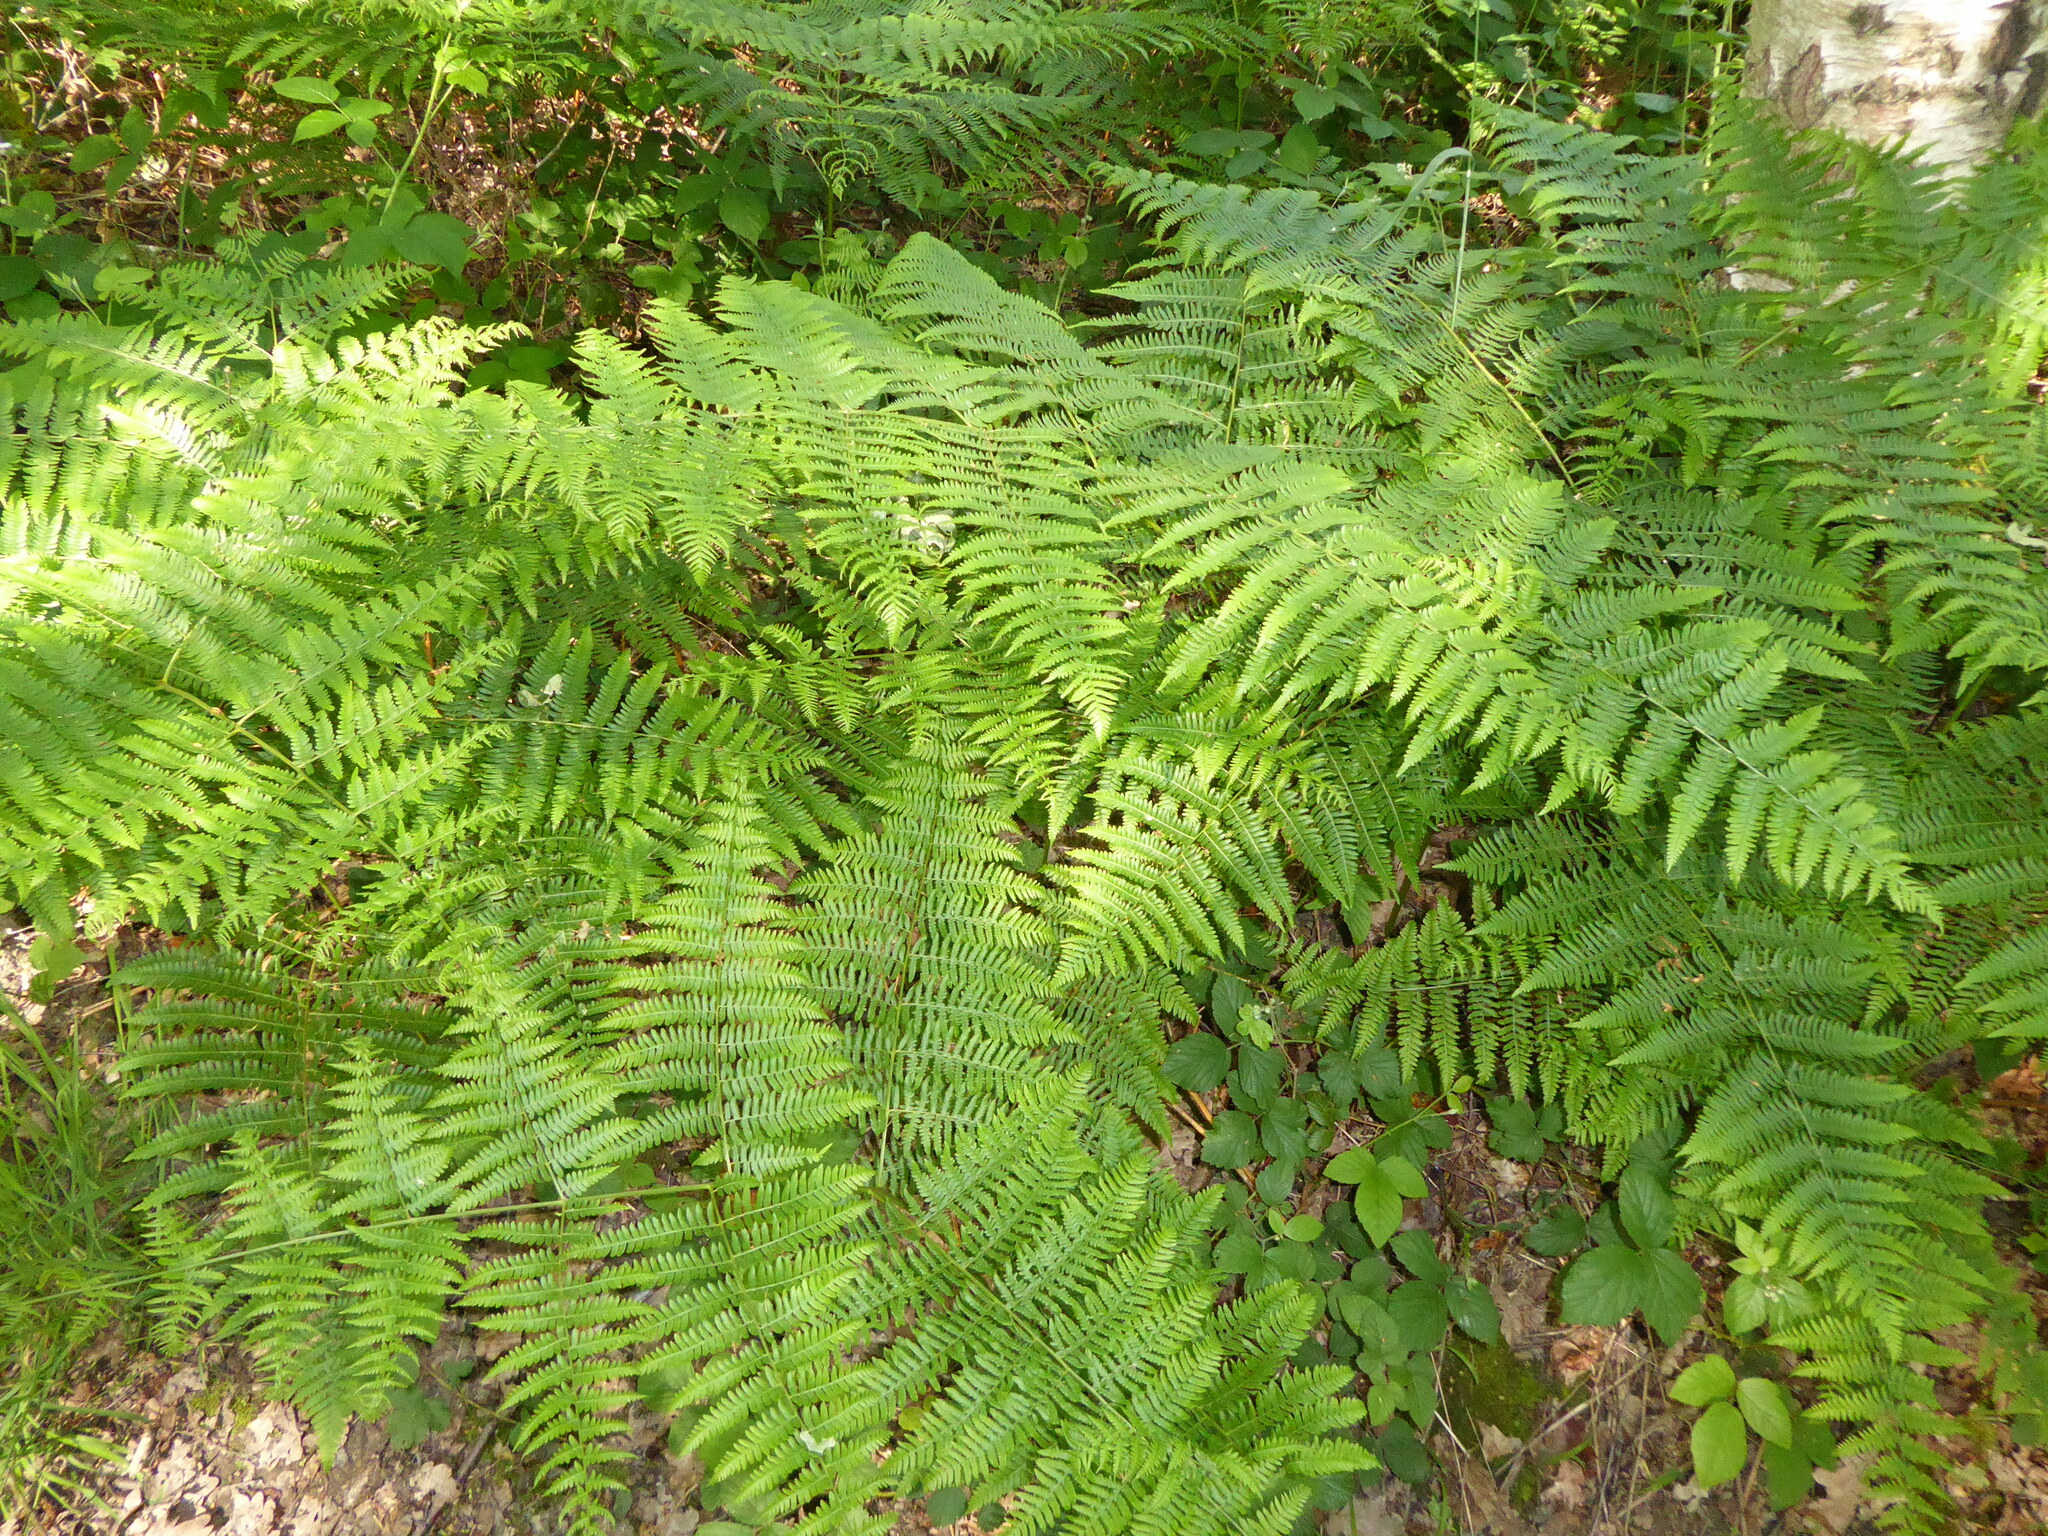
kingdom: Plantae
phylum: Tracheophyta
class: Polypodiopsida
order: Polypodiales
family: Dennstaedtiaceae
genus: Pteridium
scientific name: Pteridium aquilinum
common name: Bracken
